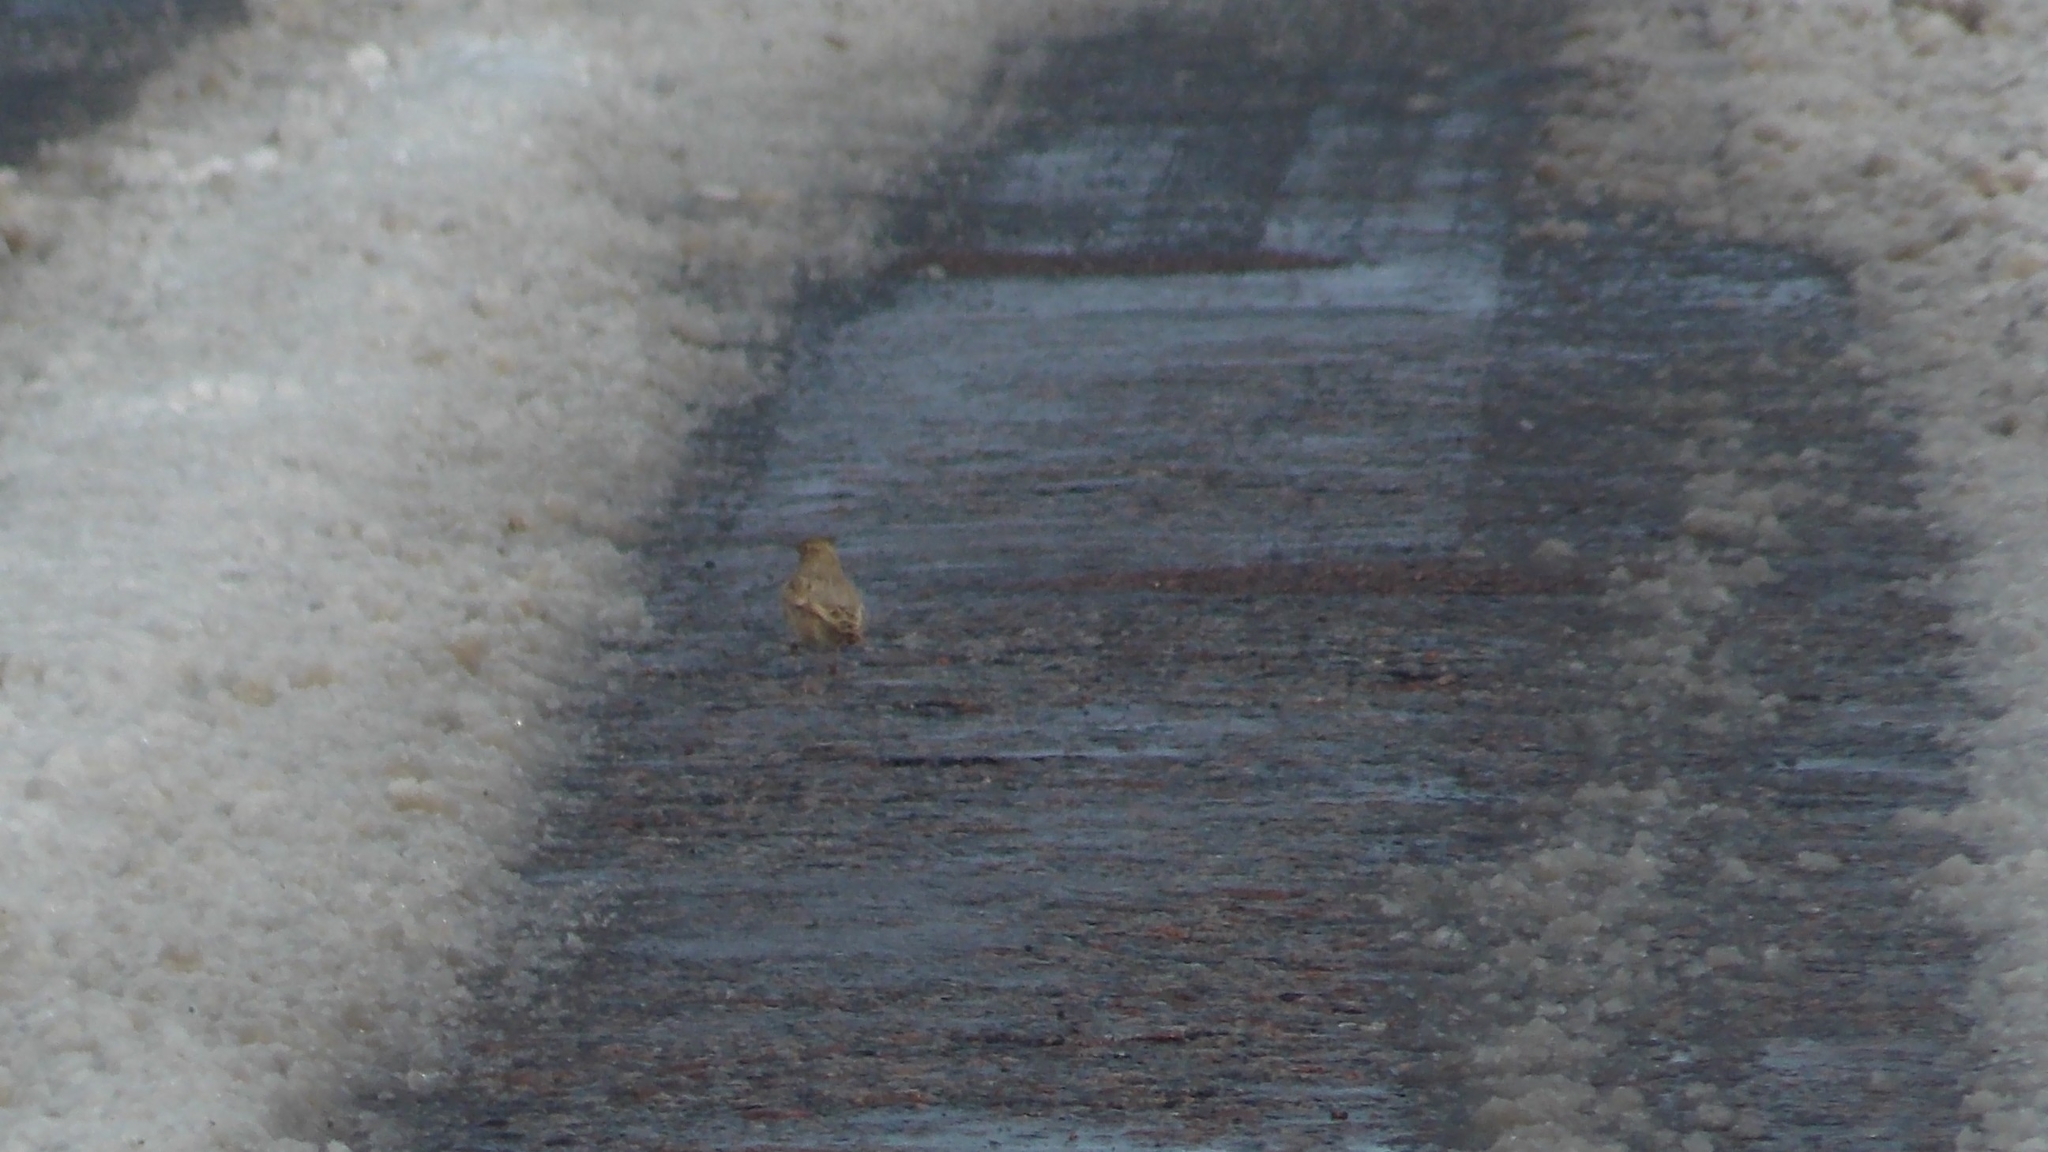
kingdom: Animalia
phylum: Chordata
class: Aves
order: Passeriformes
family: Alaudidae
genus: Galerida
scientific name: Galerida cristata
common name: Crested lark
